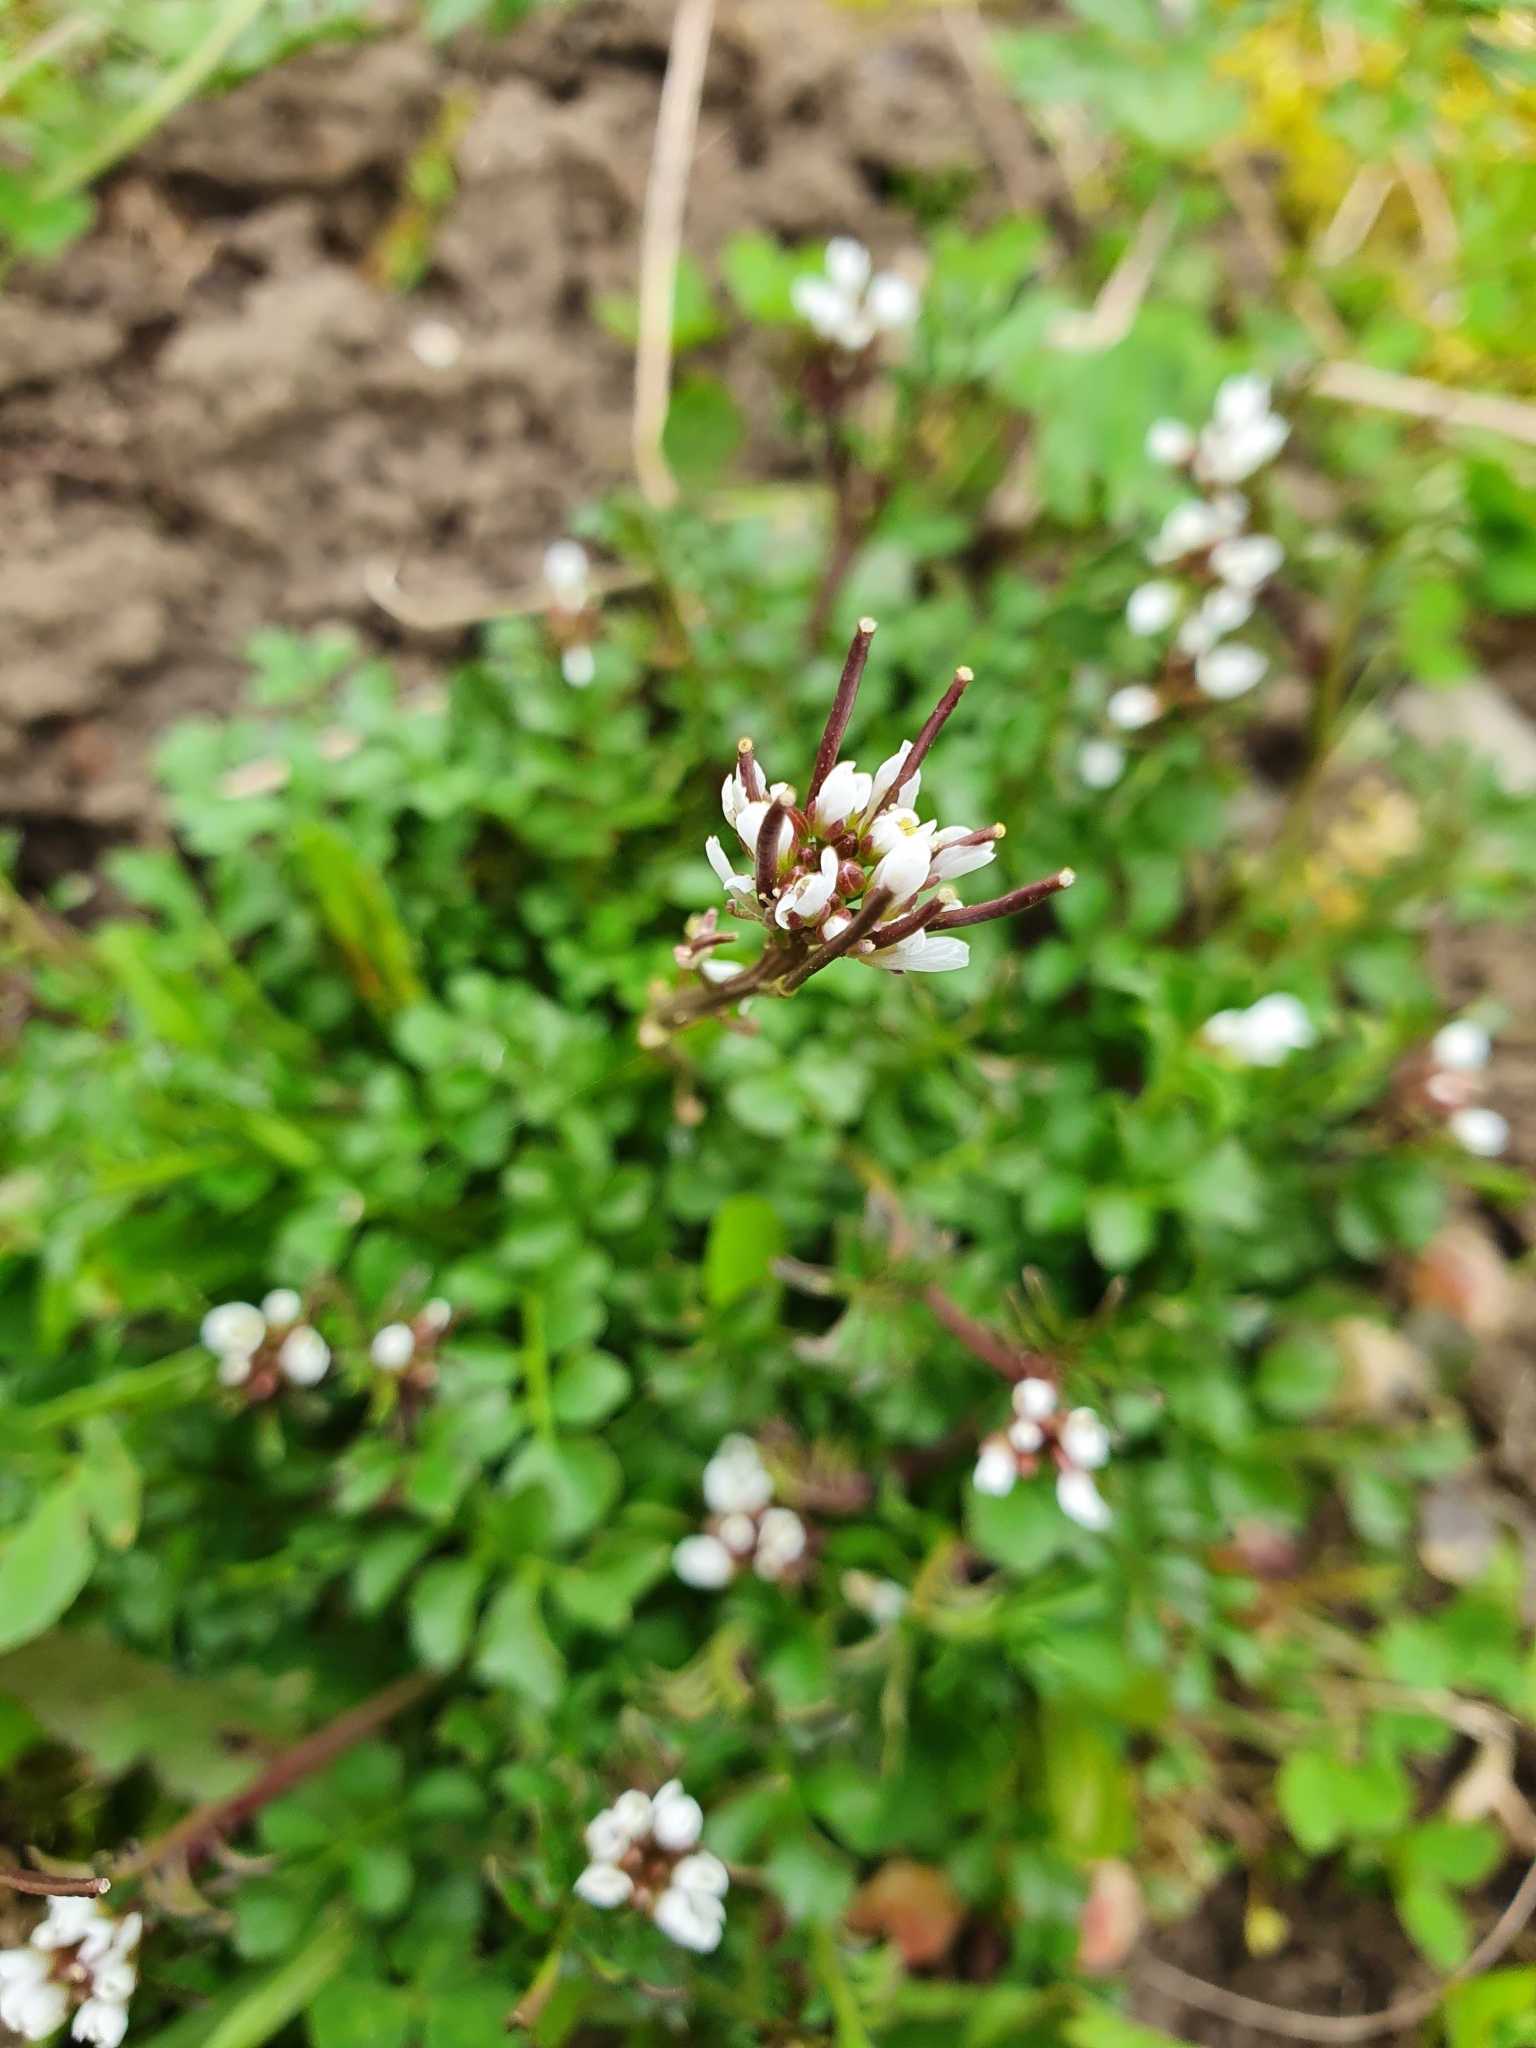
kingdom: Plantae
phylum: Tracheophyta
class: Magnoliopsida
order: Brassicales
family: Brassicaceae
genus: Cardamine
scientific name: Cardamine hirsuta
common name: Hairy bittercress
